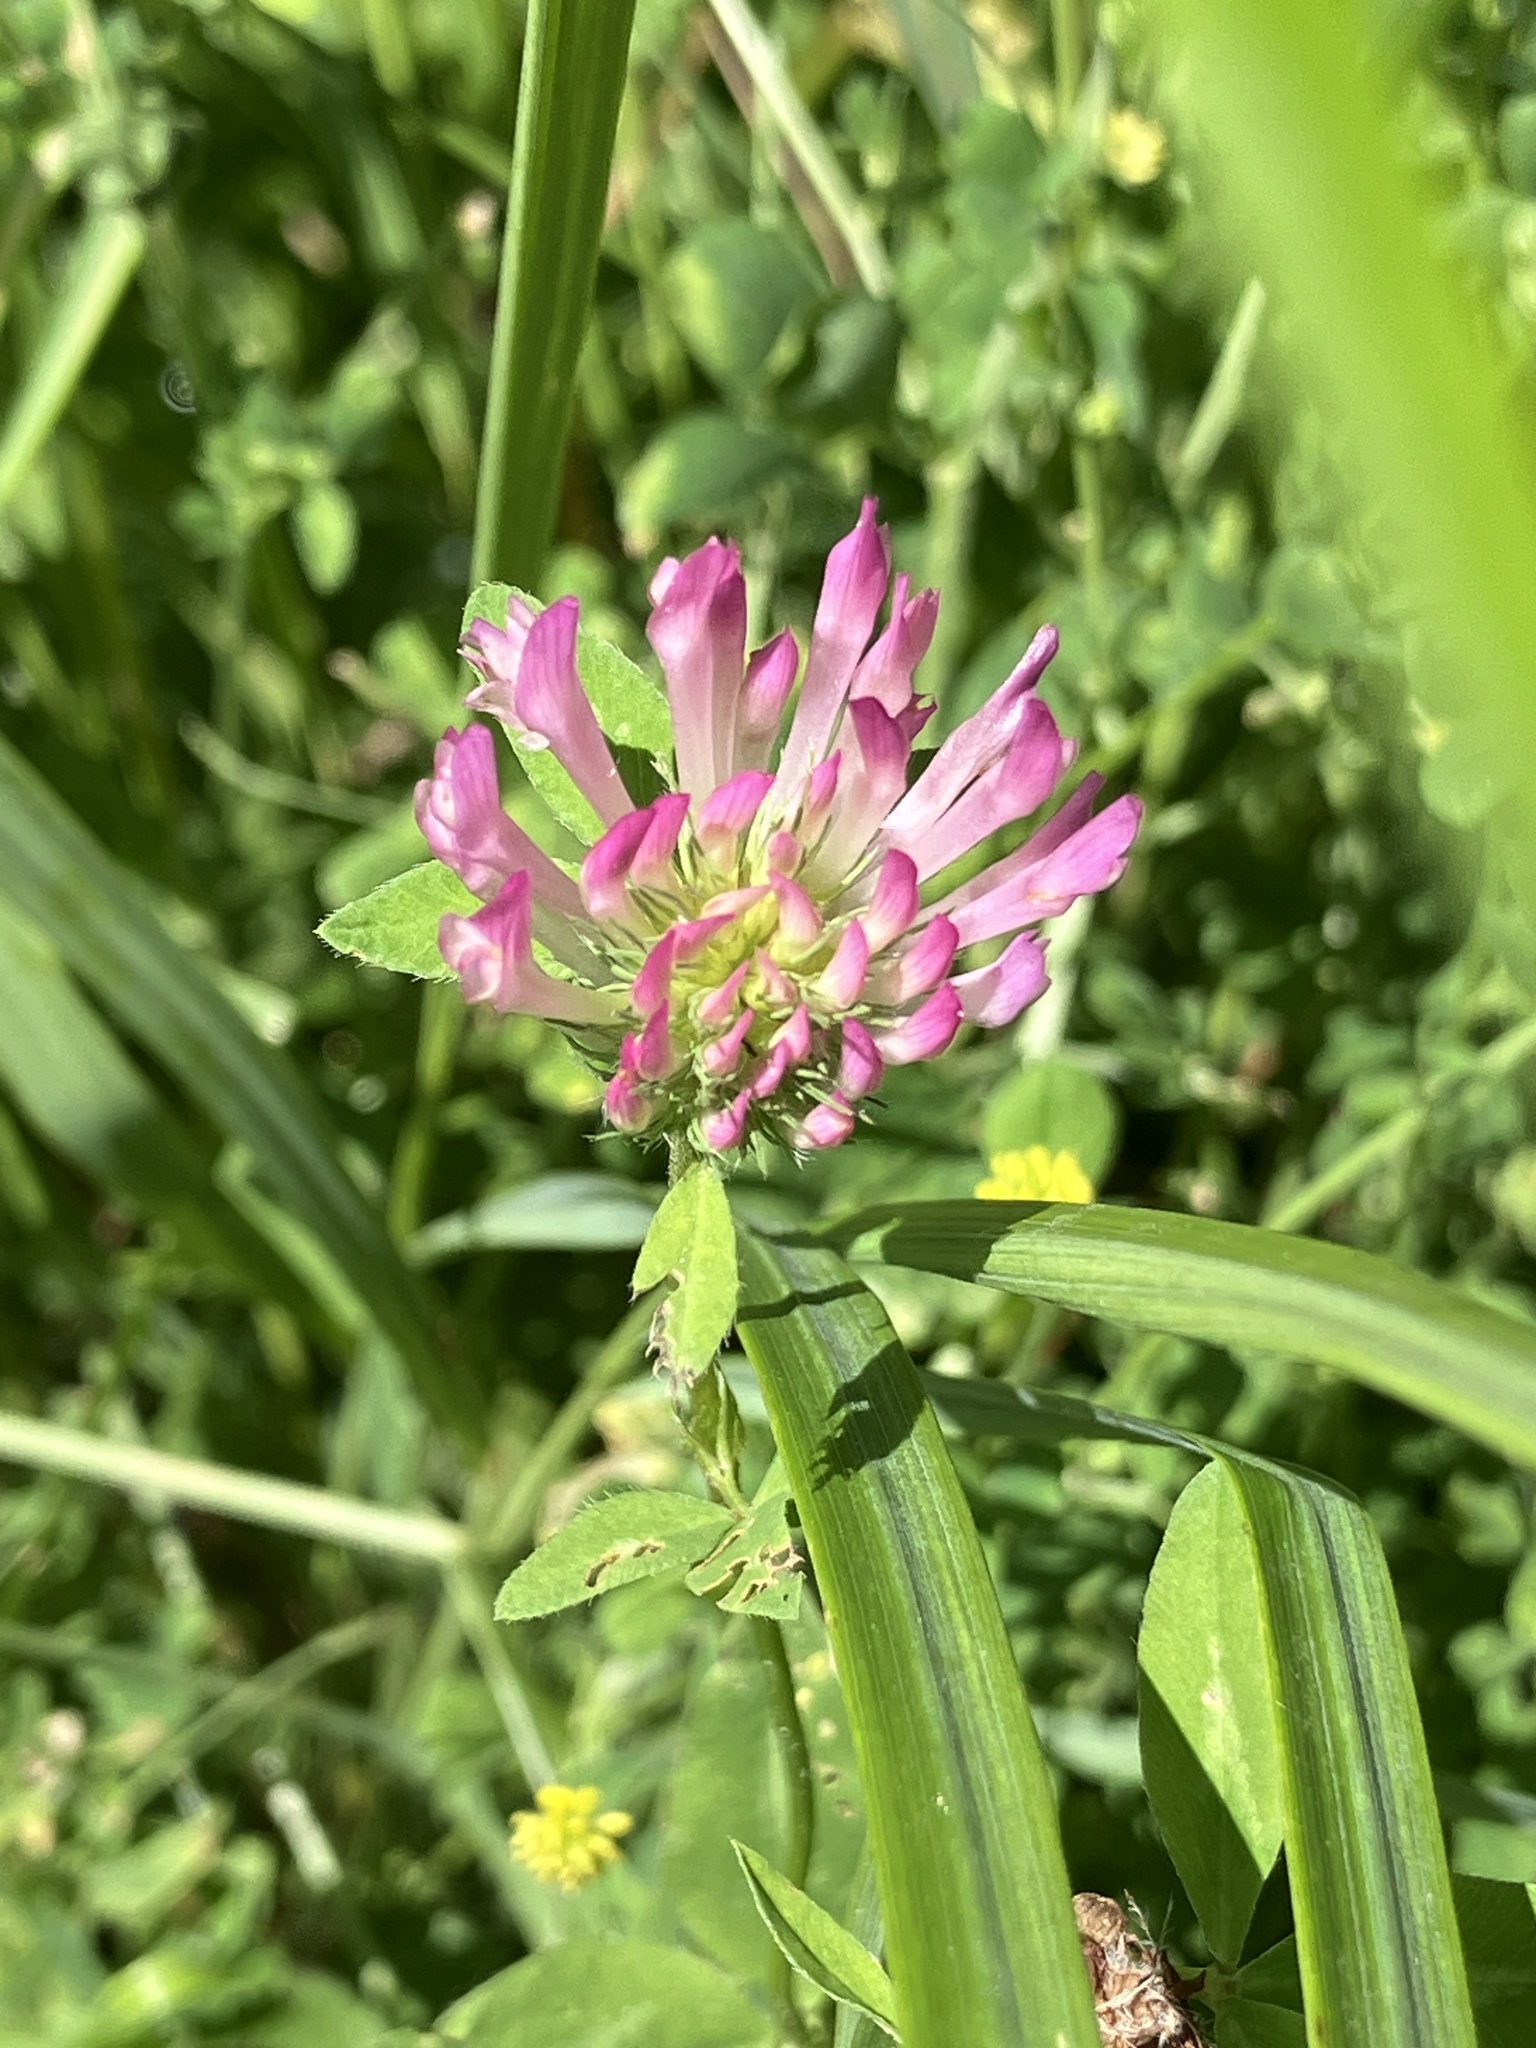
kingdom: Plantae
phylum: Tracheophyta
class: Magnoliopsida
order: Fabales
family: Fabaceae
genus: Trifolium
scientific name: Trifolium pratense
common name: Red clover
